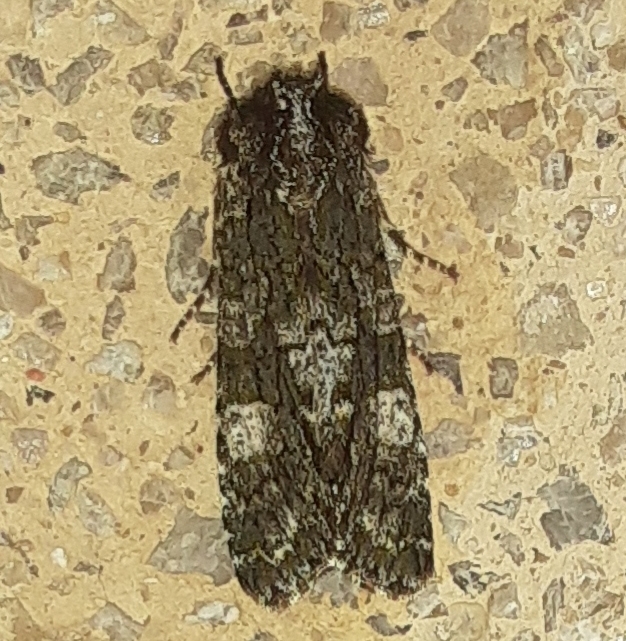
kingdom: Animalia
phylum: Arthropoda
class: Insecta
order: Lepidoptera
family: Noctuidae
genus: Psaphida
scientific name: Psaphida grotei
